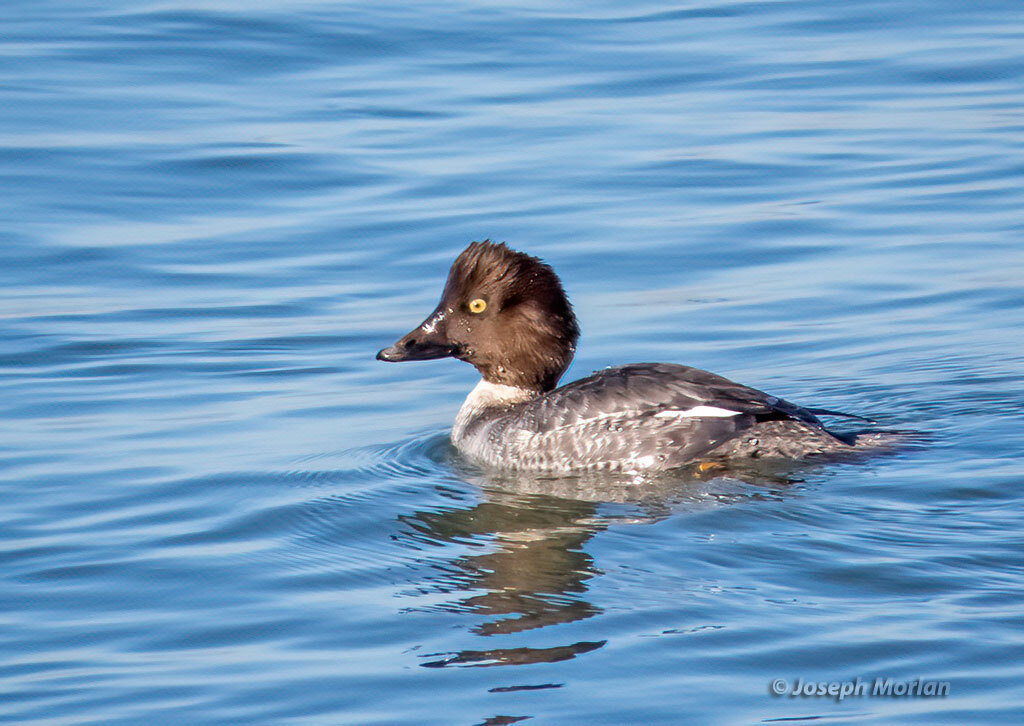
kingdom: Animalia
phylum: Chordata
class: Aves
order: Anseriformes
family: Anatidae
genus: Bucephala
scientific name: Bucephala clangula
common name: Common goldeneye
